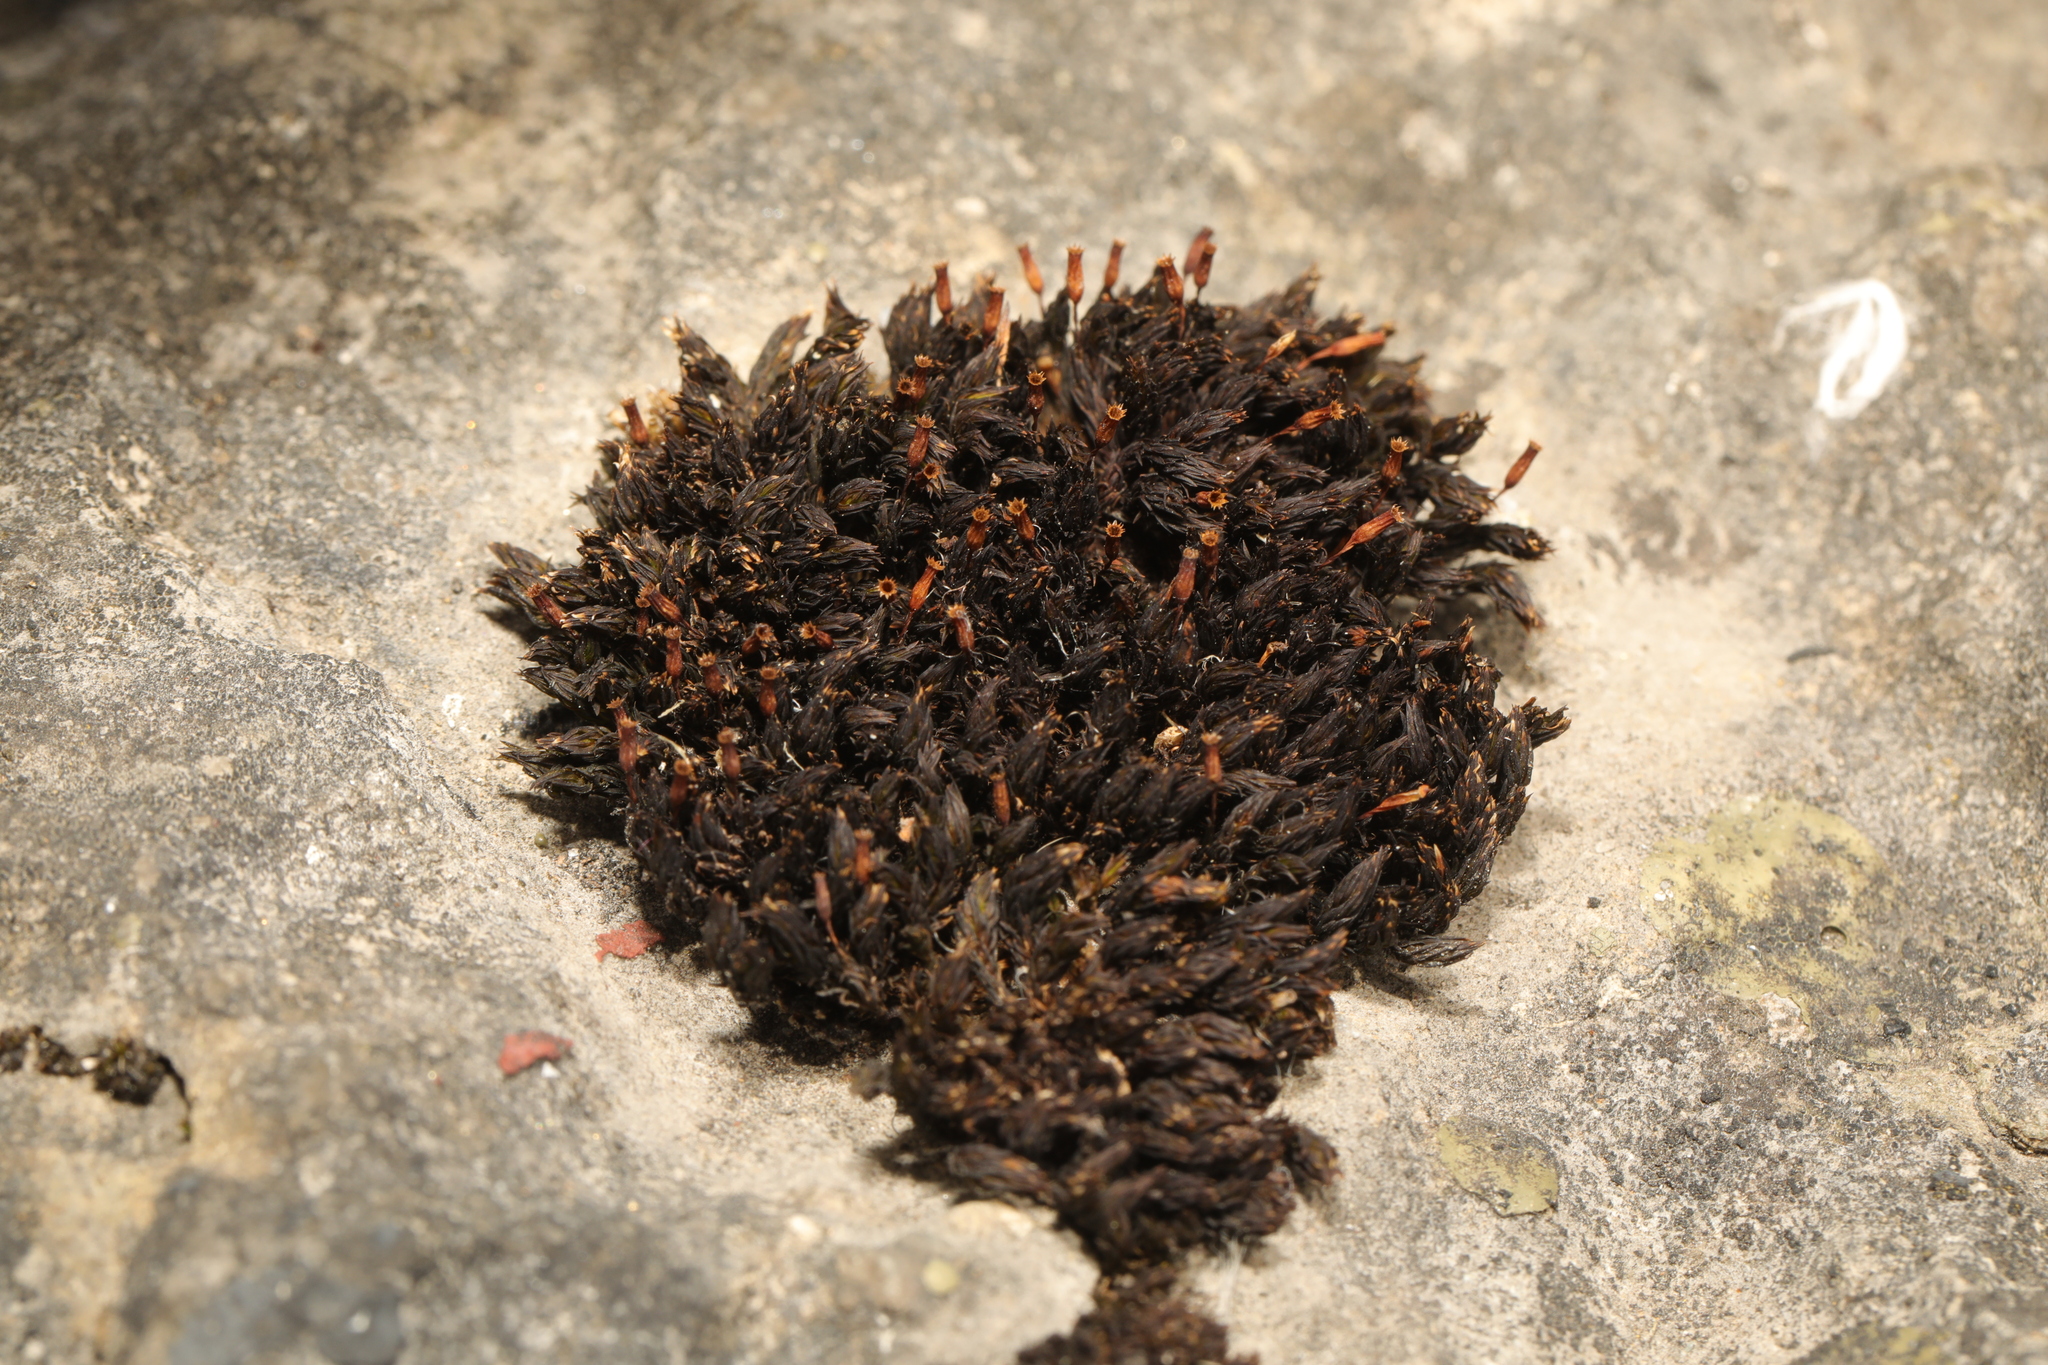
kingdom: Plantae
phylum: Bryophyta
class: Bryopsida
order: Orthotrichales
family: Orthotrichaceae
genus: Orthotrichum
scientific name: Orthotrichum anomalum
